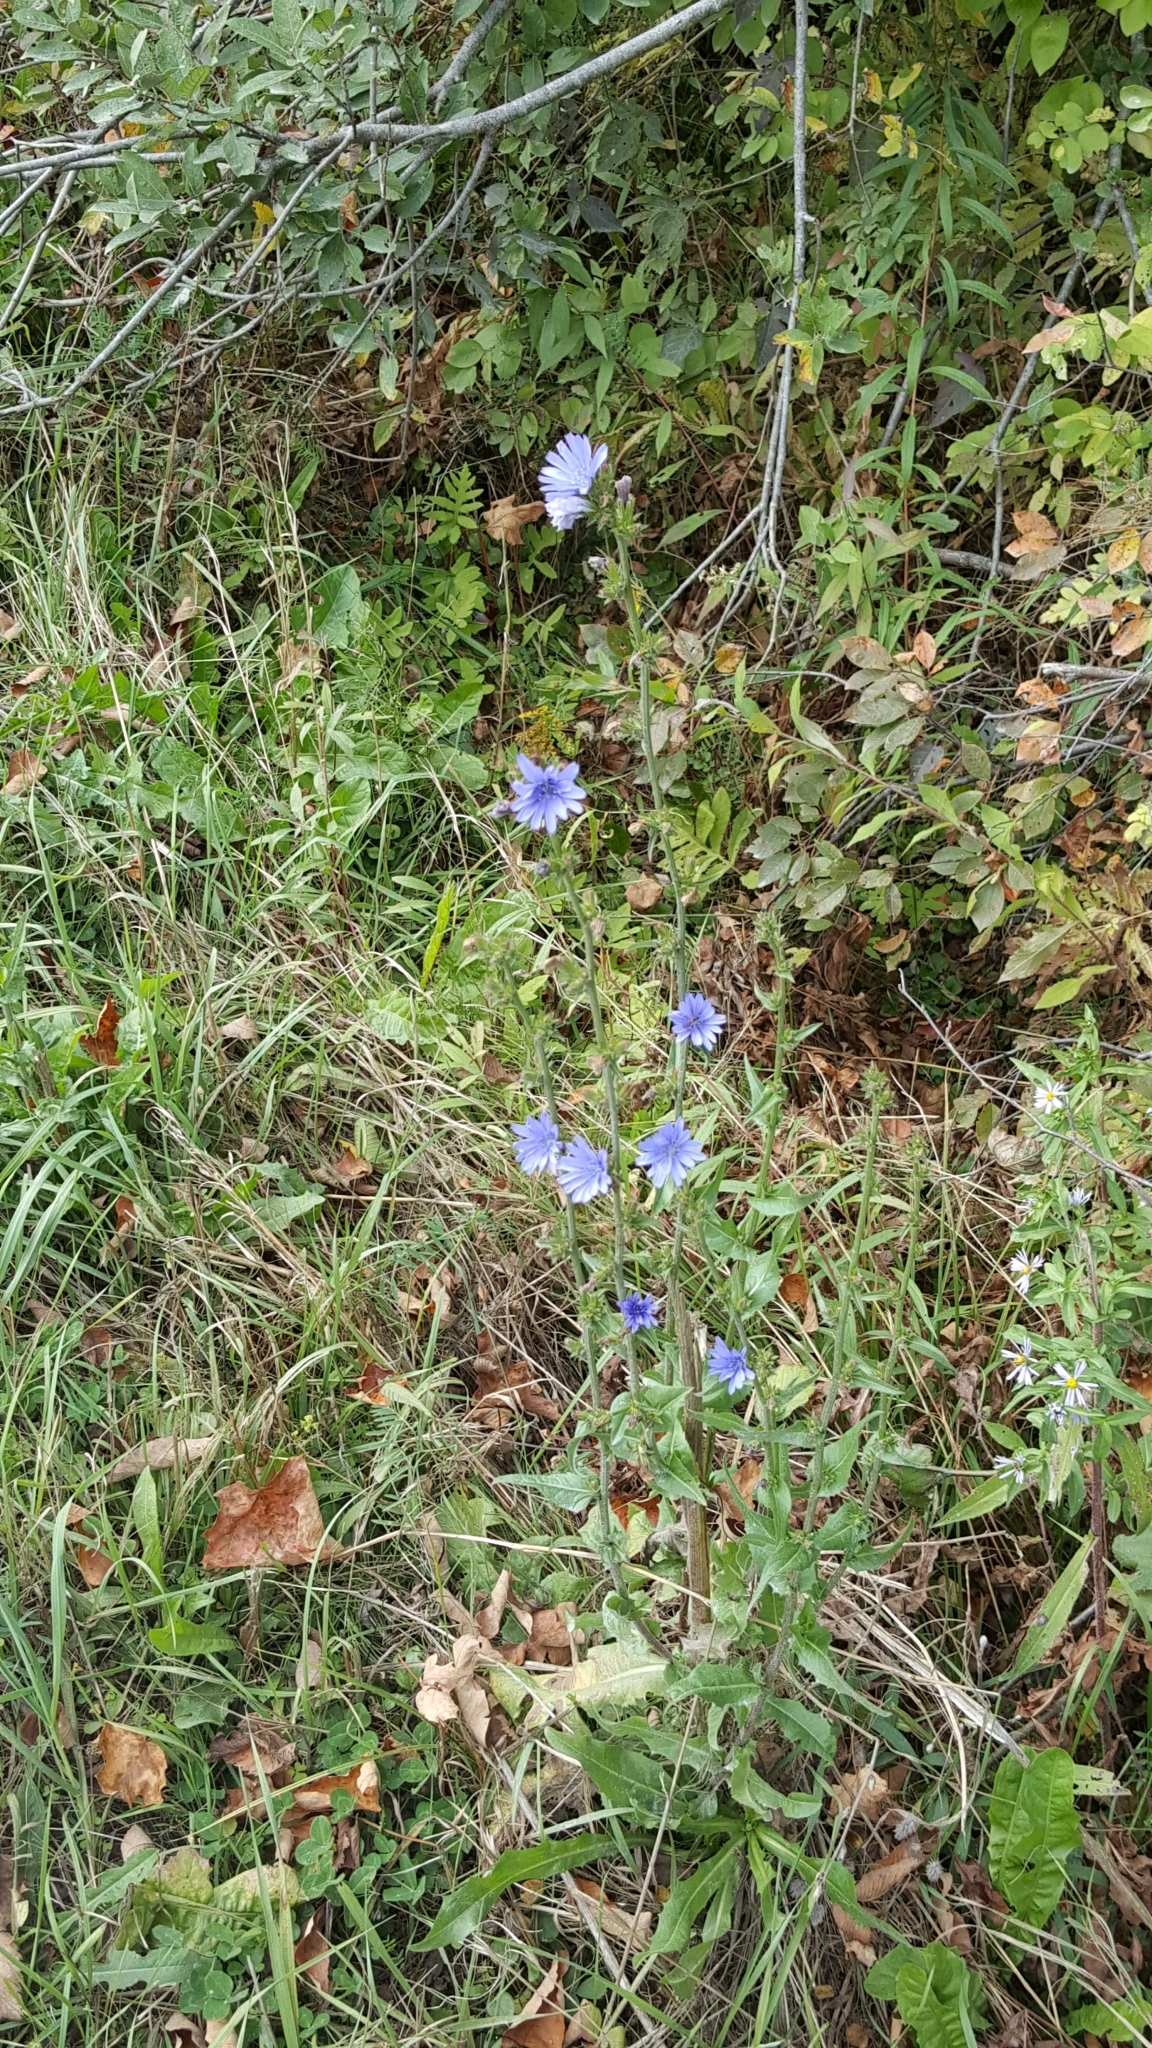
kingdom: Plantae
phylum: Tracheophyta
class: Magnoliopsida
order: Asterales
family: Asteraceae
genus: Cichorium
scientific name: Cichorium intybus
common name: Chicory
